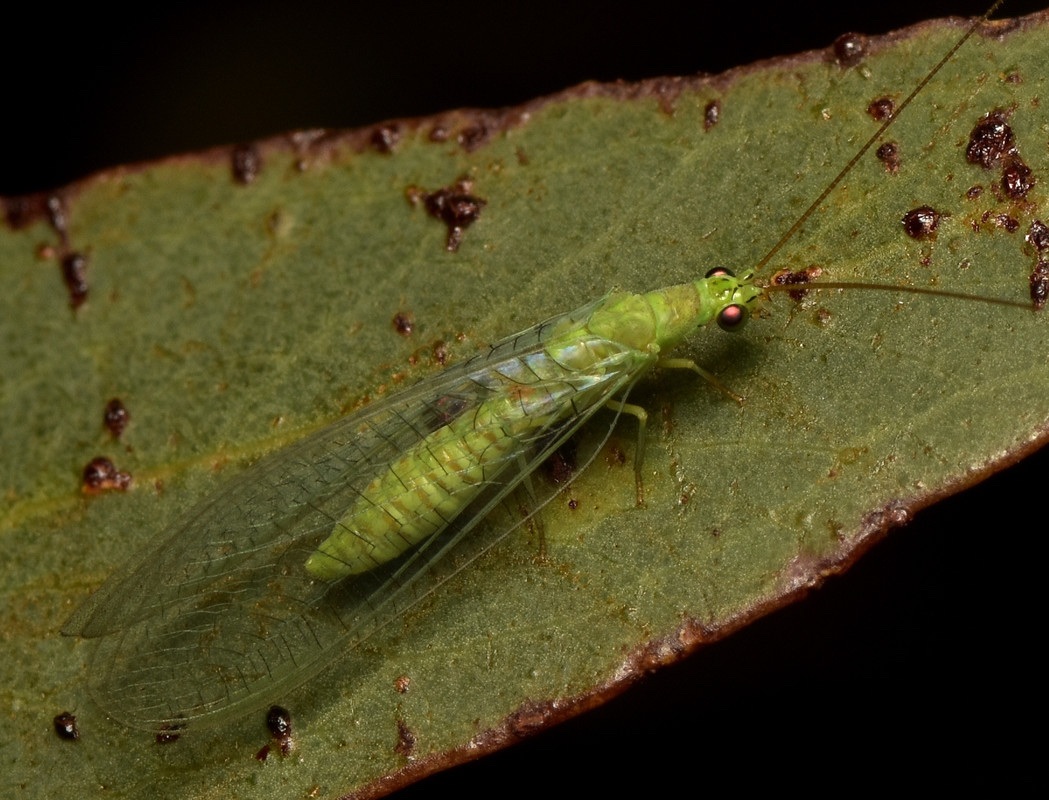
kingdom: Animalia
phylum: Arthropoda
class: Insecta
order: Neuroptera
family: Chrysopidae
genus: Mallada
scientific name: Mallada signatus
